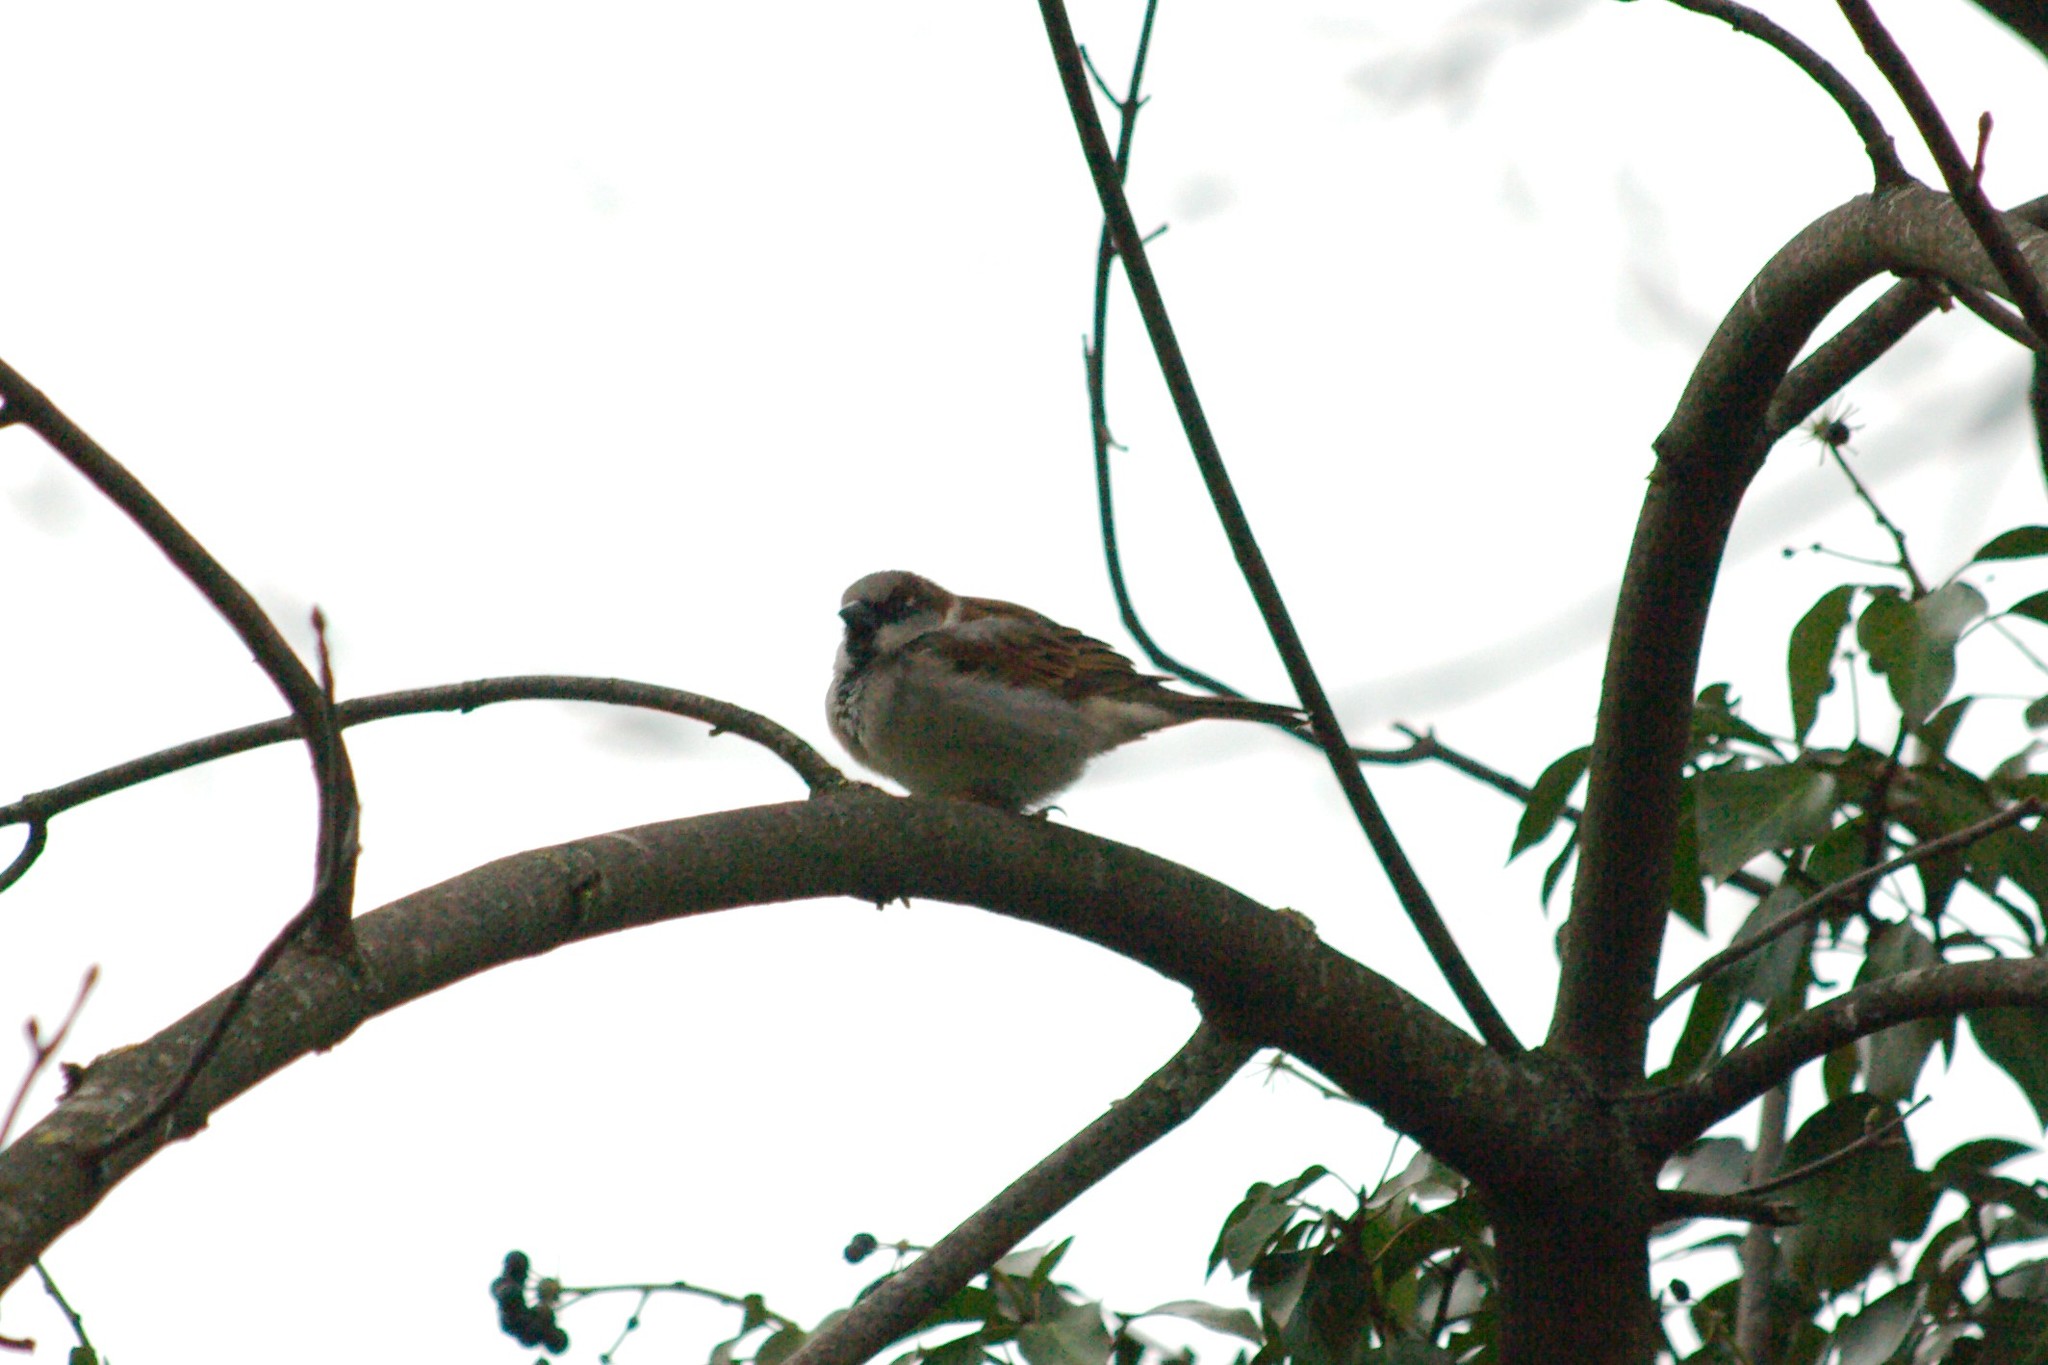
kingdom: Animalia
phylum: Chordata
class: Aves
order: Passeriformes
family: Passeridae
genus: Passer
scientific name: Passer domesticus
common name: House sparrow
